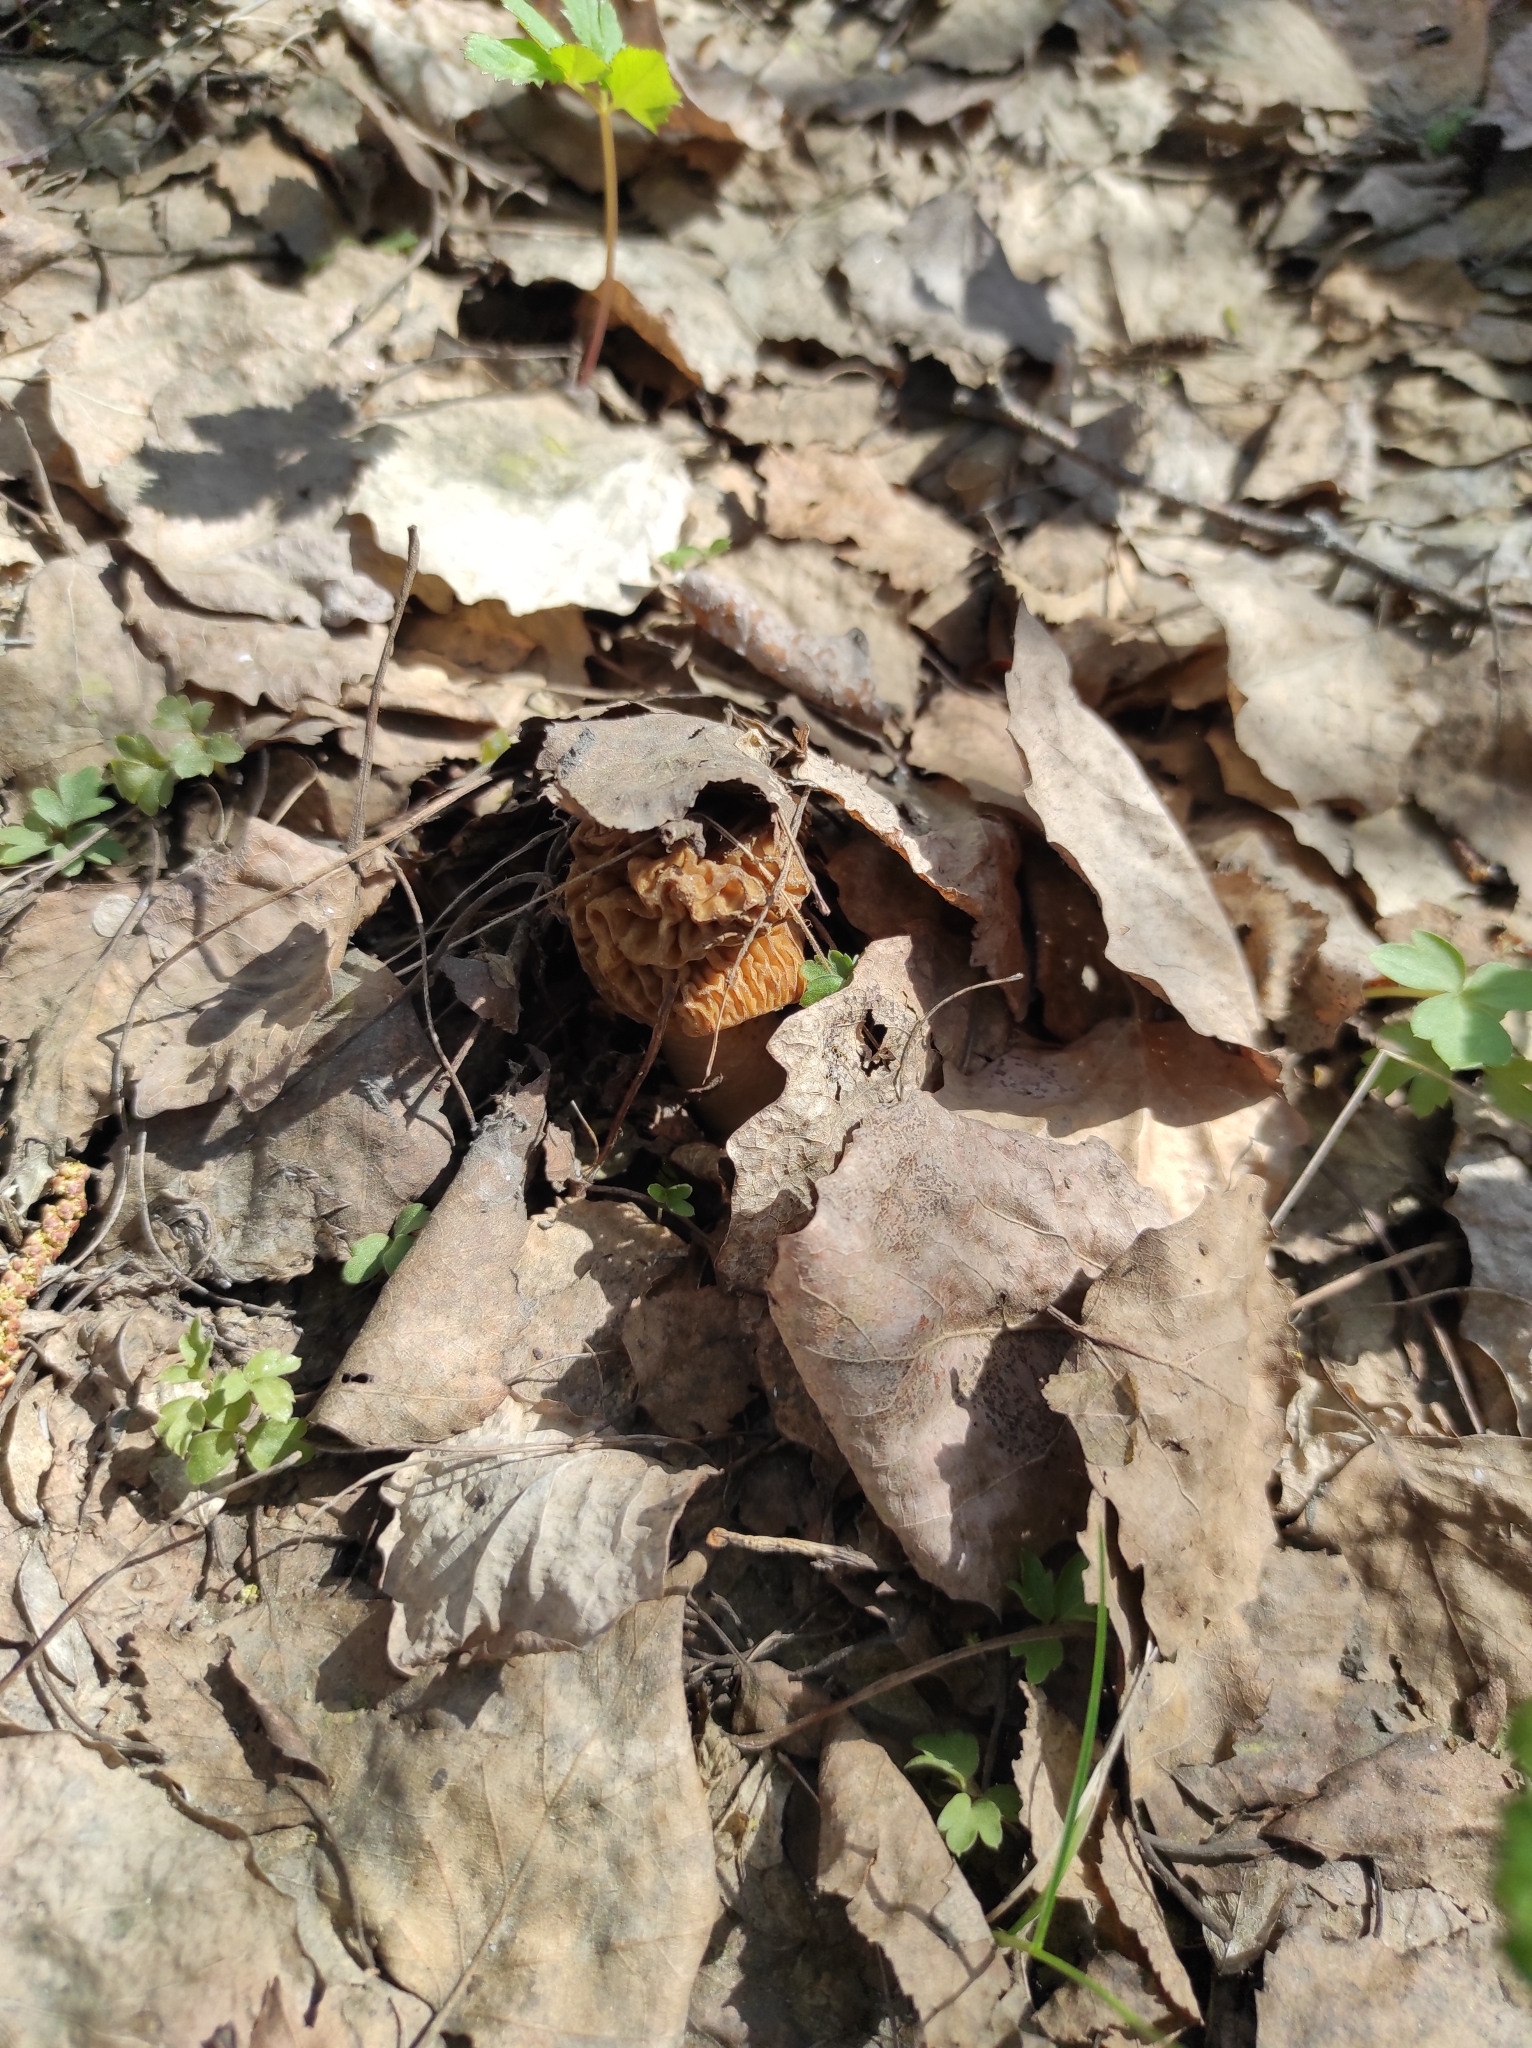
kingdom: Fungi
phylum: Ascomycota
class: Pezizomycetes
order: Pezizales
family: Morchellaceae
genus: Verpa
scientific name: Verpa bohemica
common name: Wrinkled thimble morel
